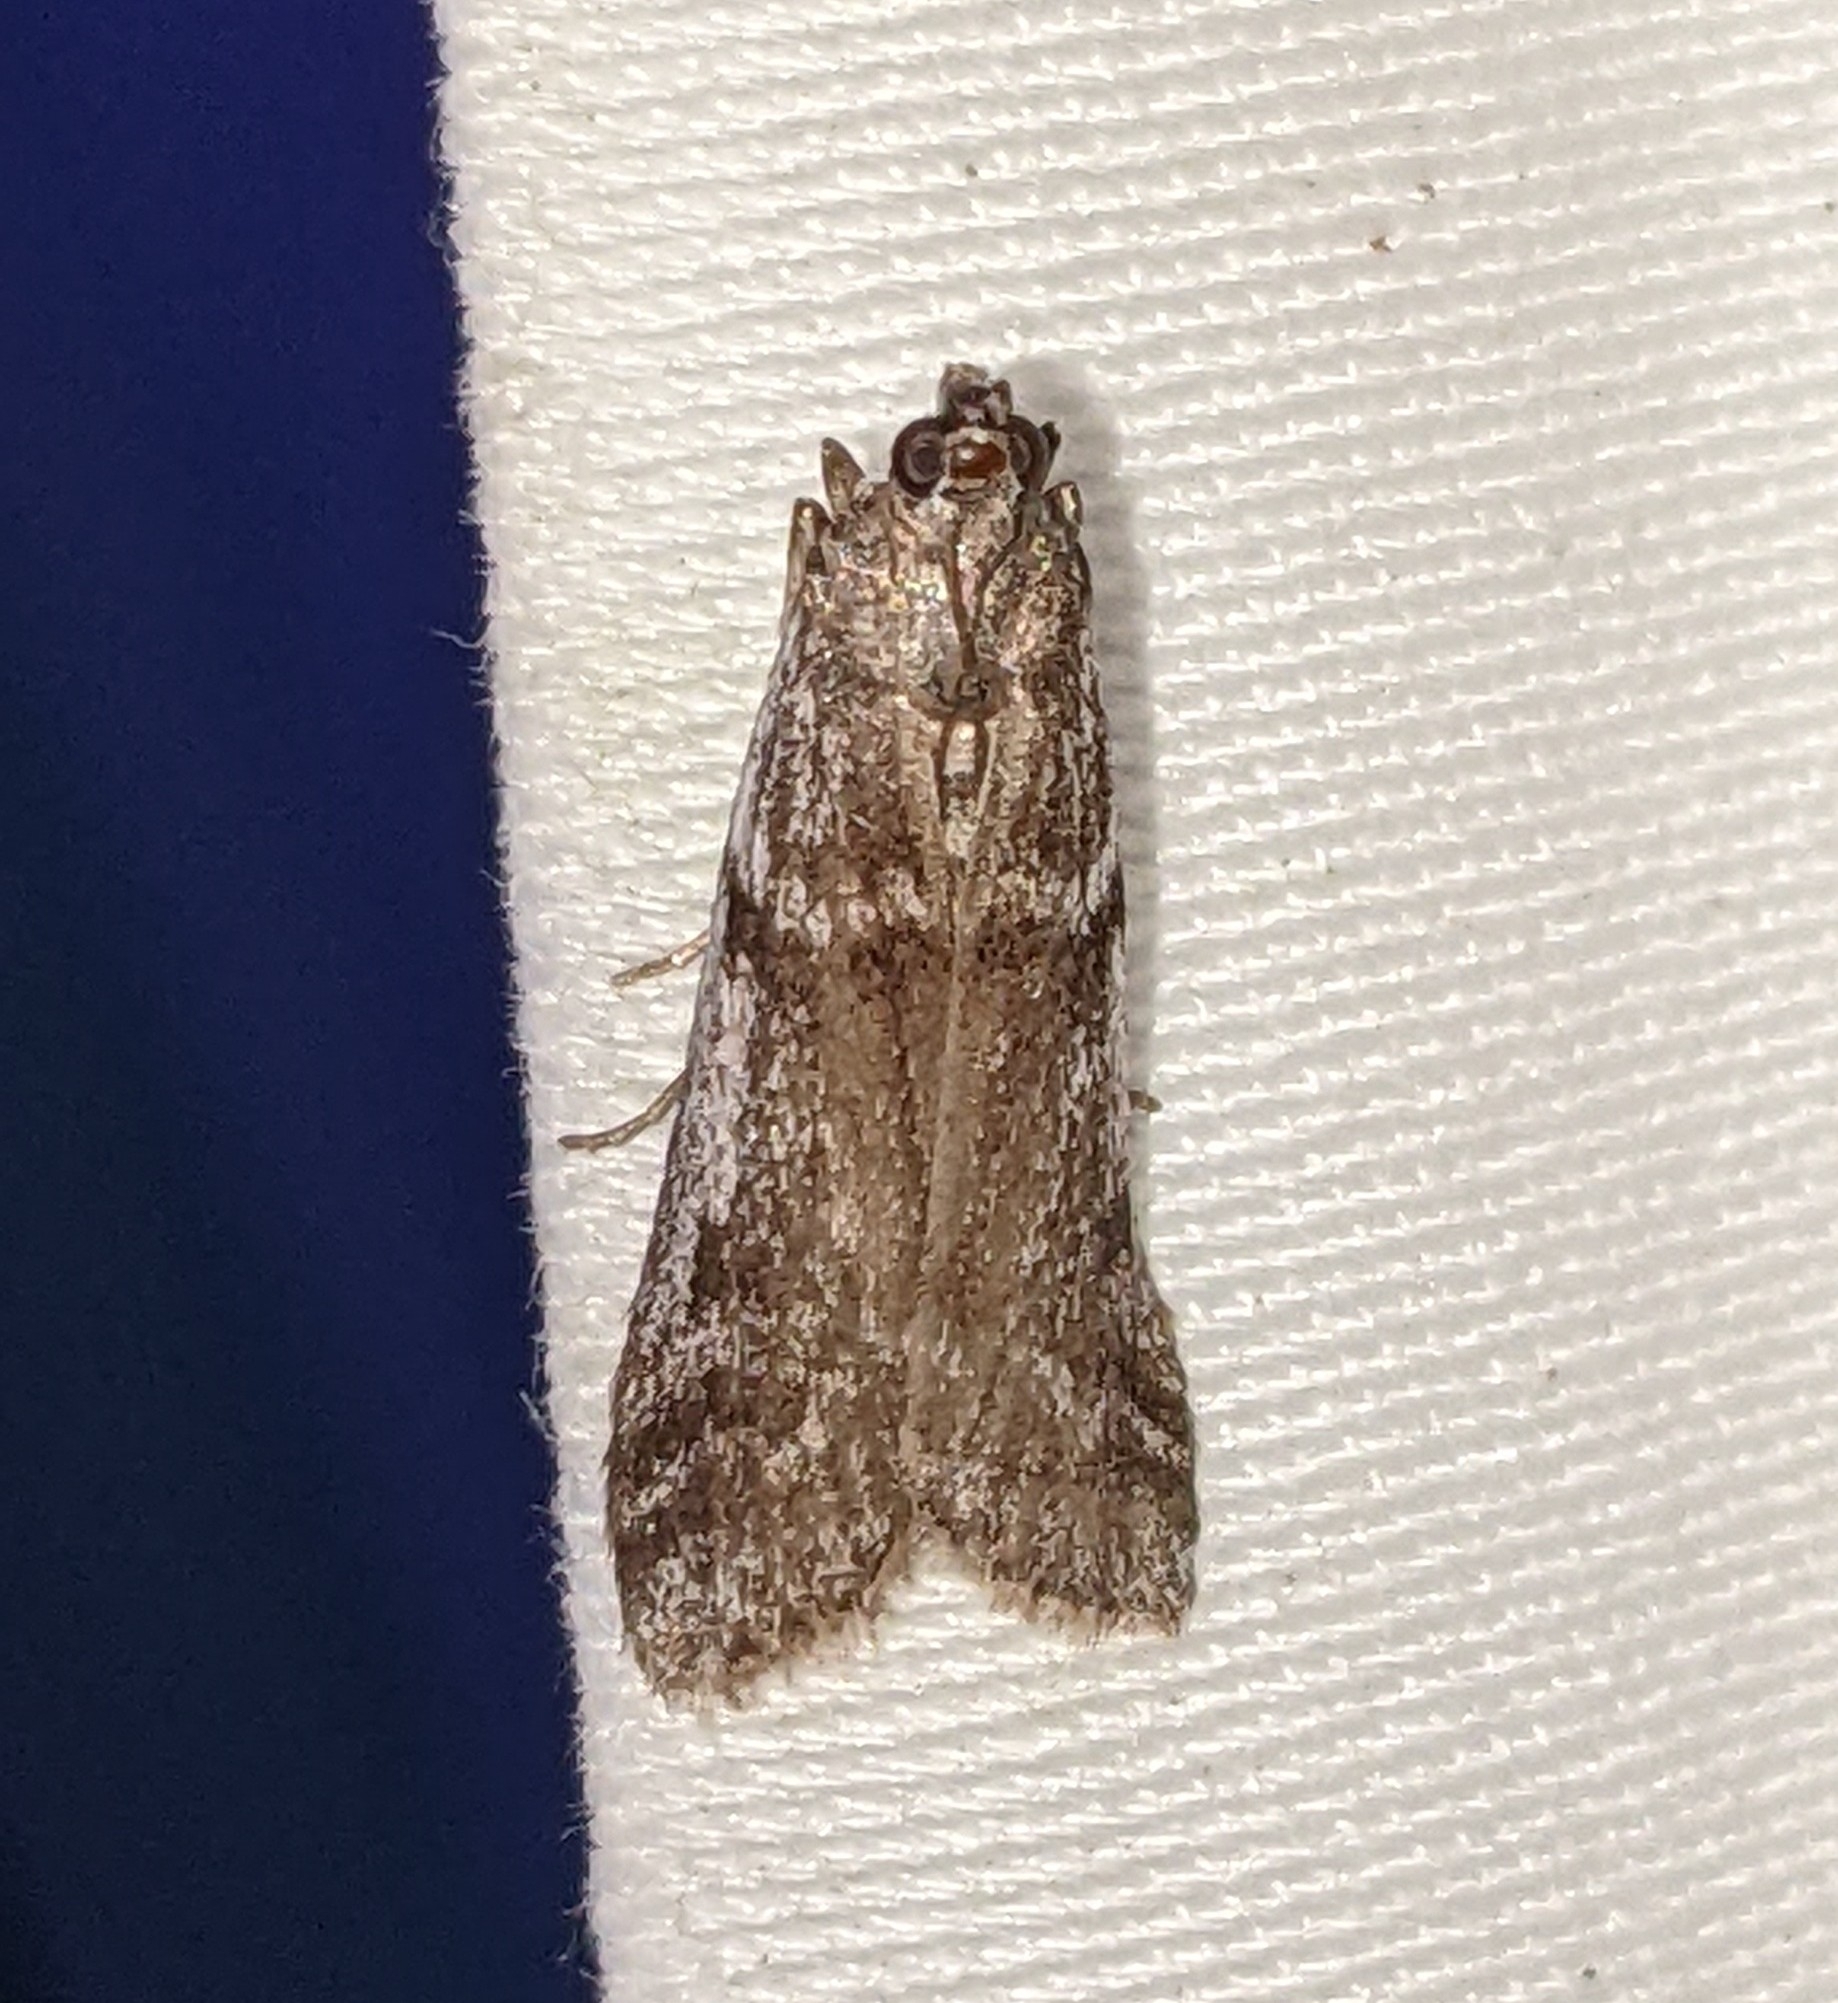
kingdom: Animalia
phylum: Arthropoda
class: Insecta
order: Lepidoptera
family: Pyralidae
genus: Zophodia
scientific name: Zophodia convolutella
